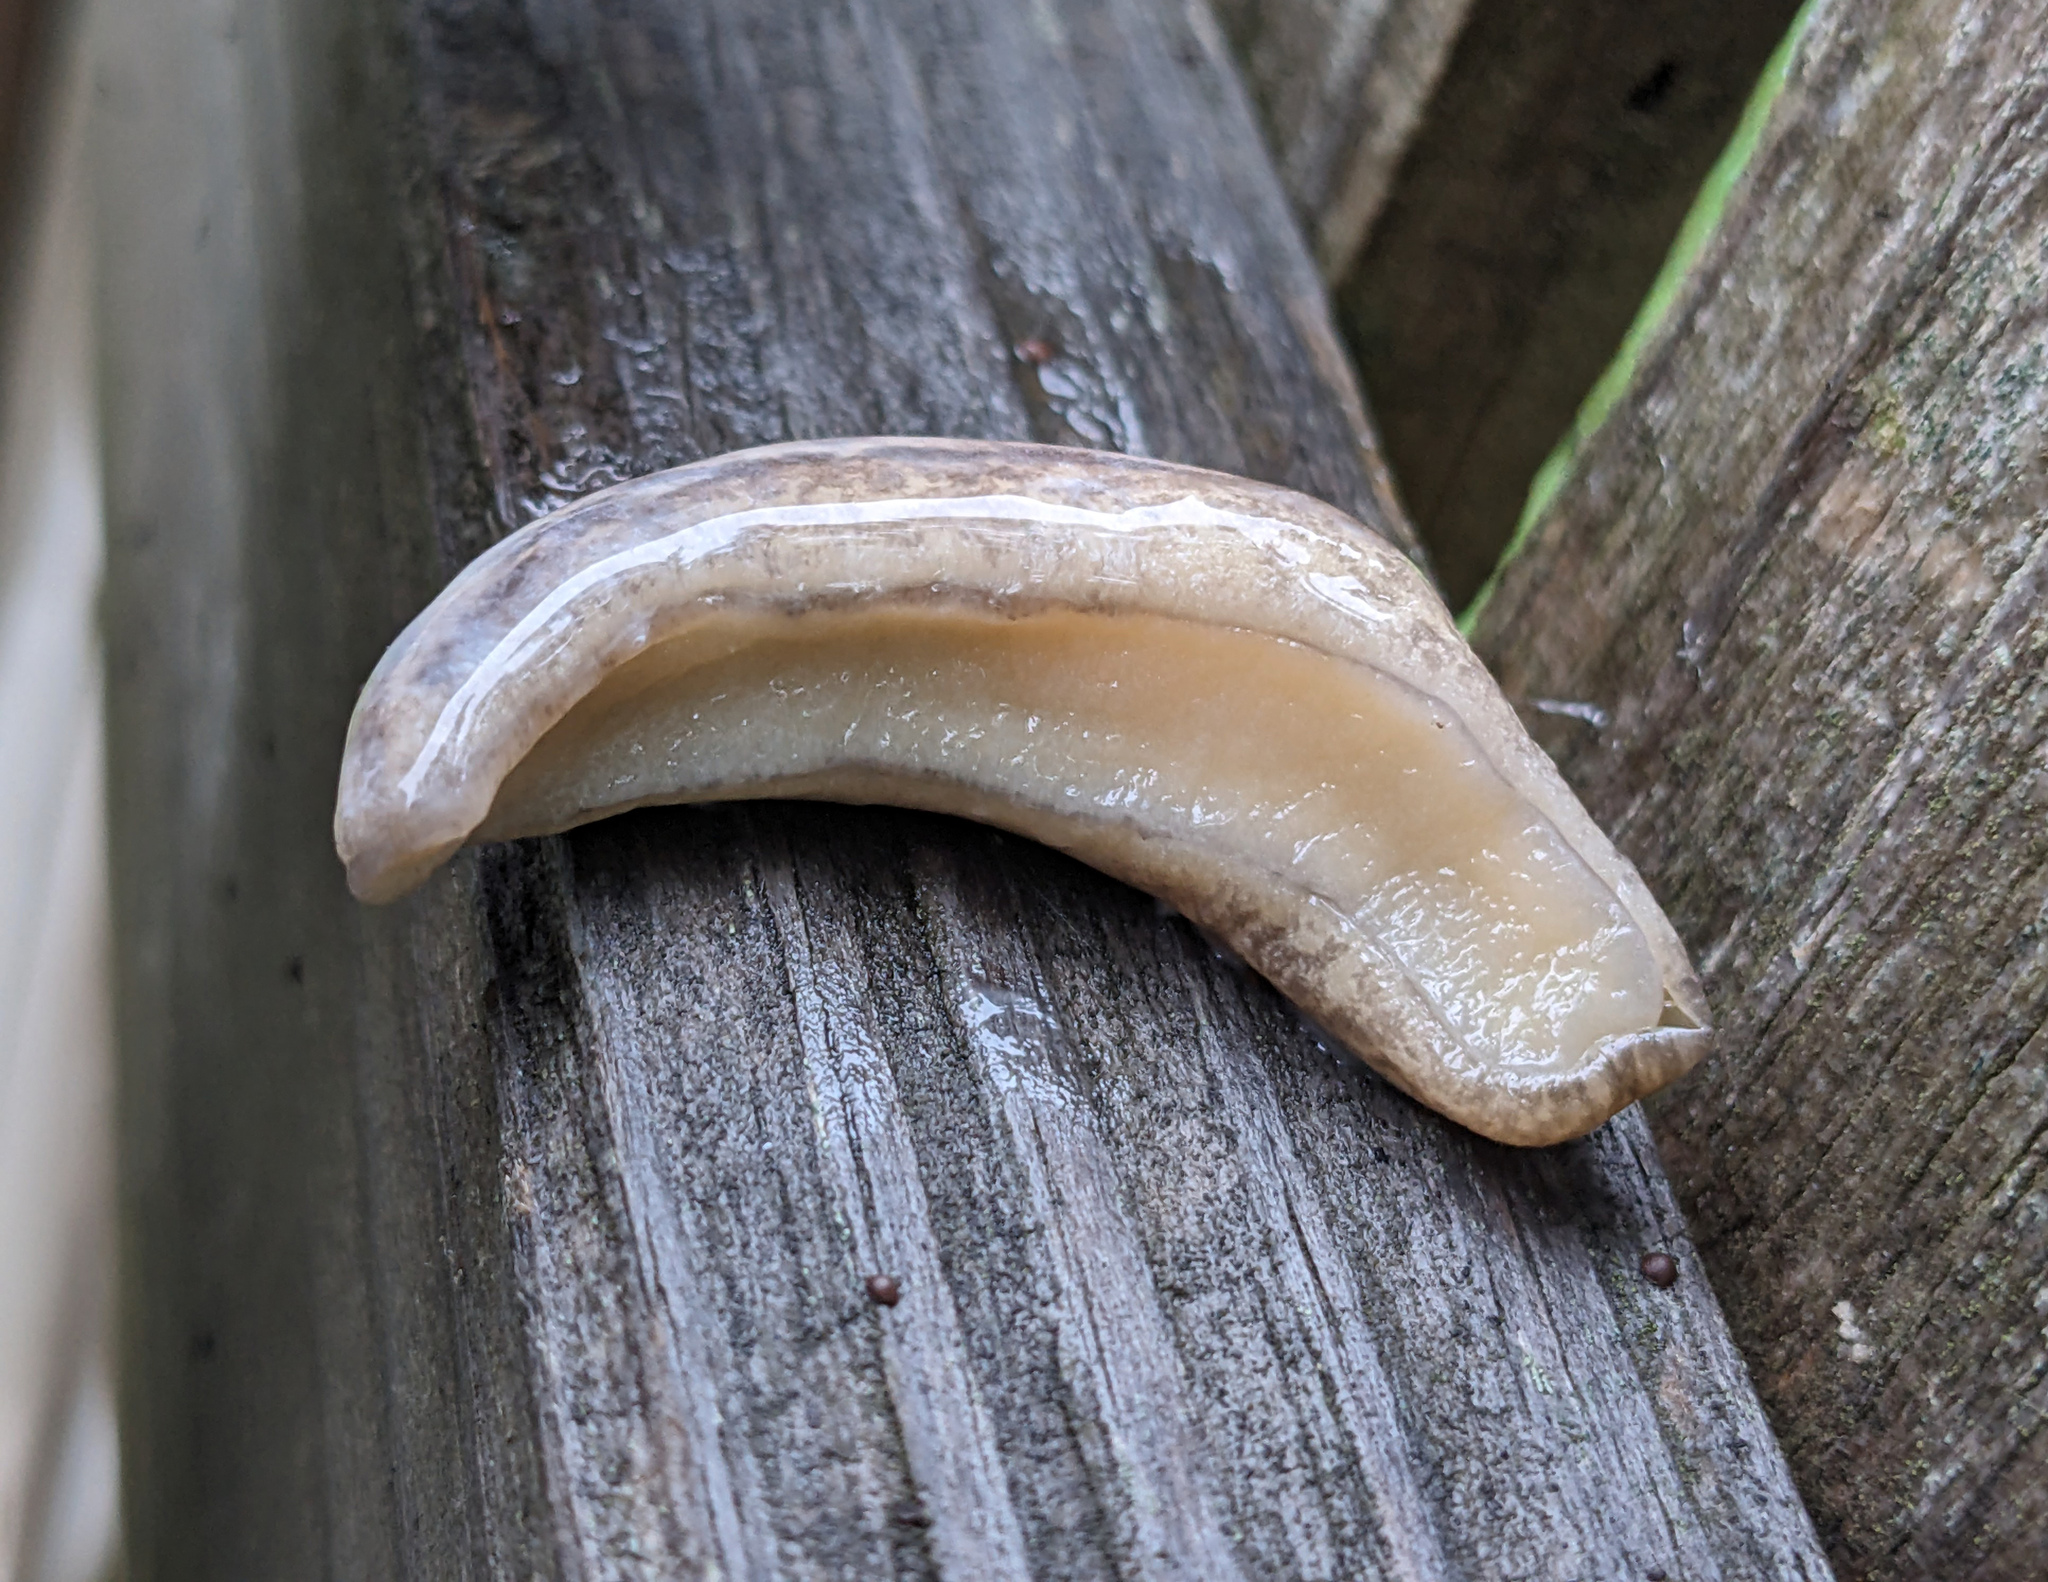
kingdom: Animalia
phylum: Mollusca
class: Gastropoda
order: Stylommatophora
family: Philomycidae
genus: Megapallifera
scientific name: Megapallifera mutabilis
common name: Changeable mantleslug
